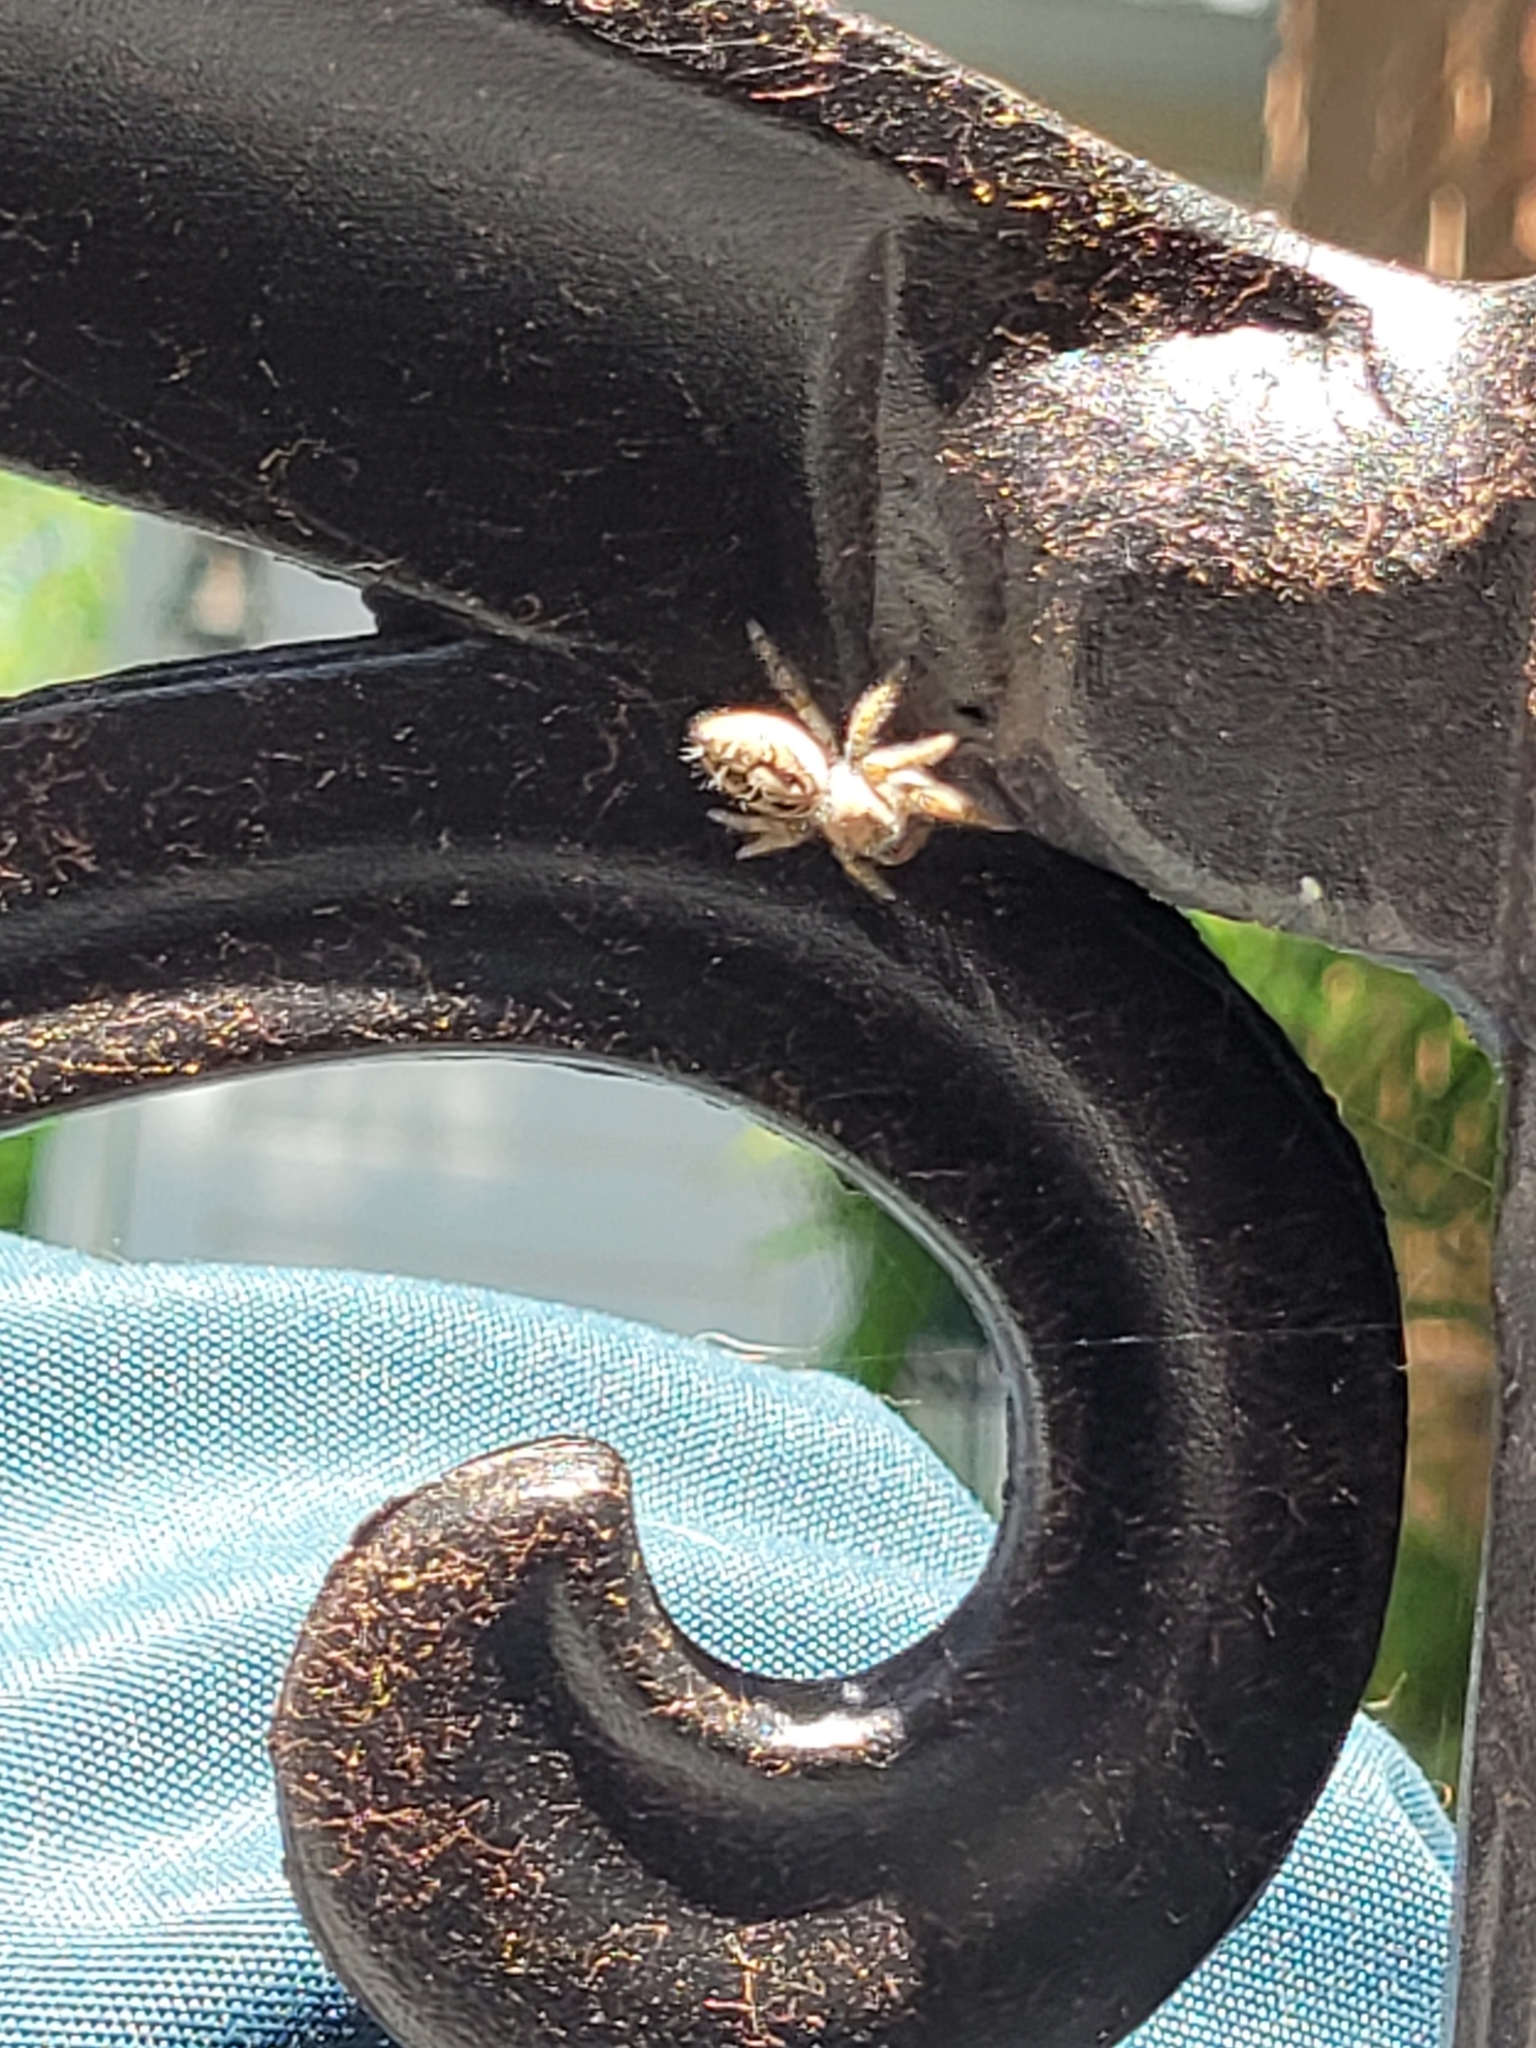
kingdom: Animalia
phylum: Arthropoda
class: Arachnida
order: Araneae
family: Salticidae
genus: Phidippus
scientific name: Phidippus carolinensis
